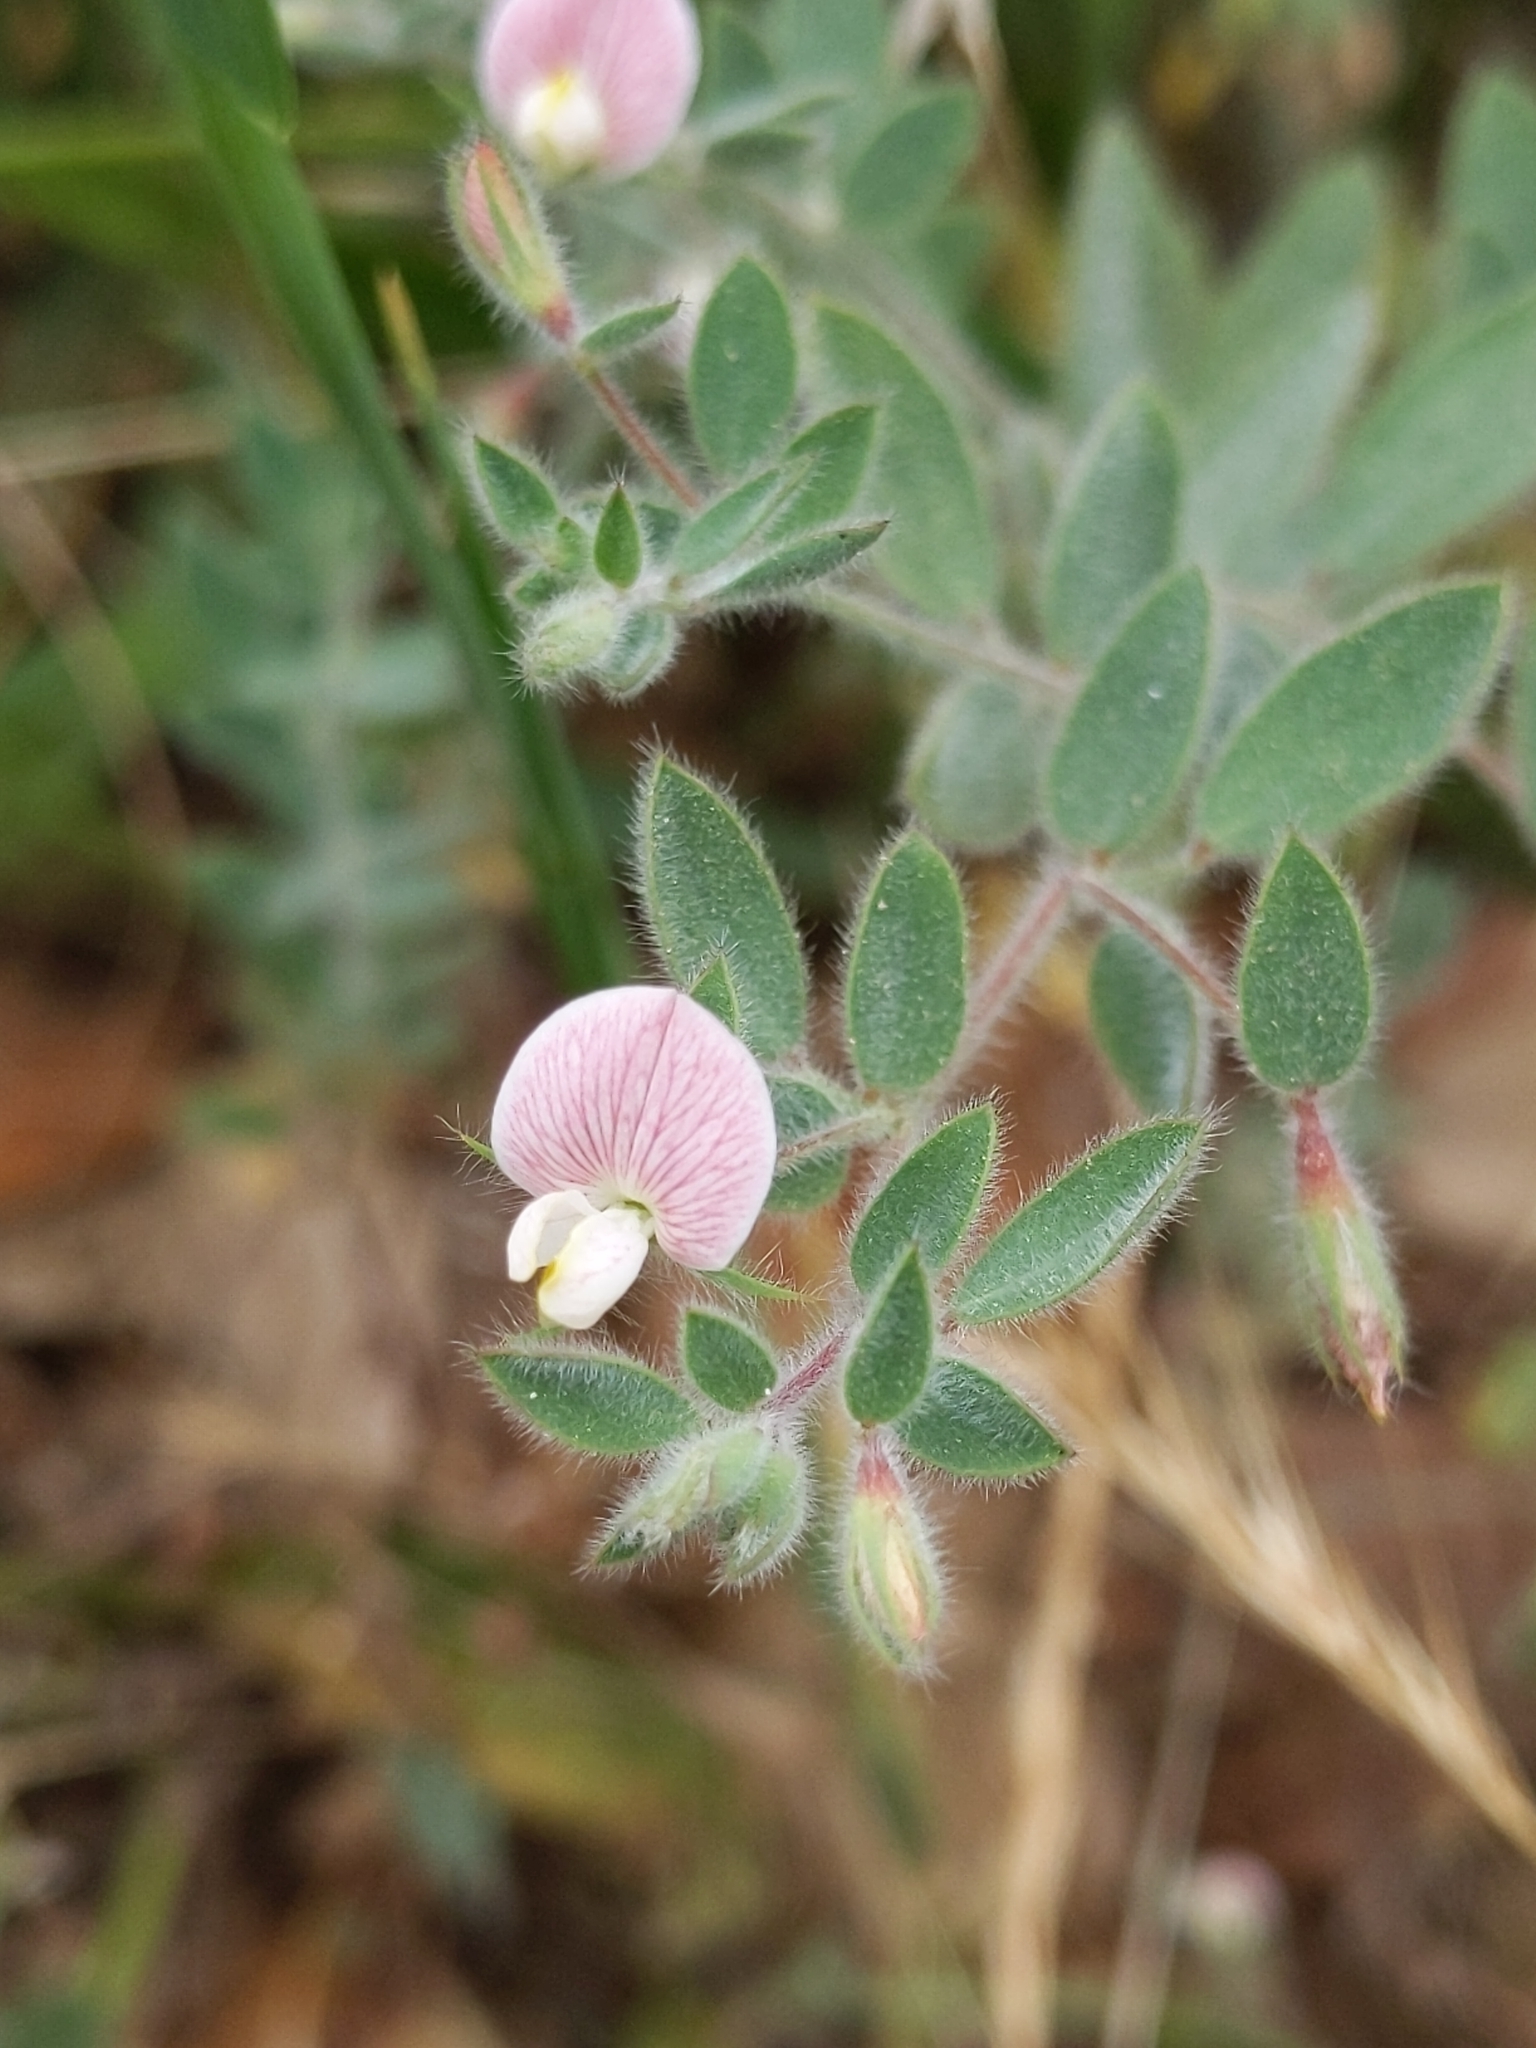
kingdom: Plantae
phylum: Tracheophyta
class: Magnoliopsida
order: Fabales
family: Fabaceae
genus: Acmispon
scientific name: Acmispon americanus
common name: American bird's-foot trefoil
